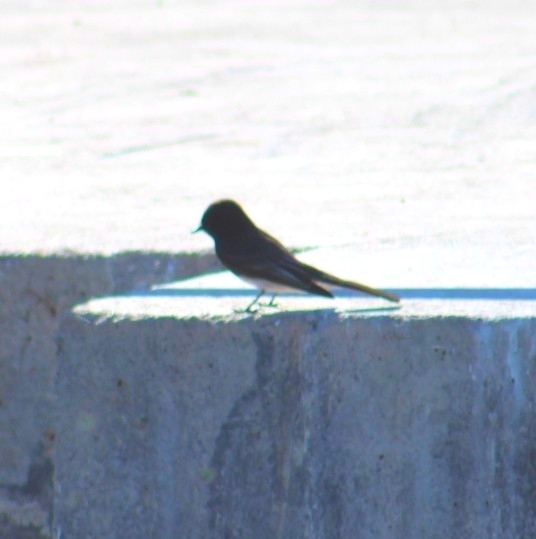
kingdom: Animalia
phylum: Chordata
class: Aves
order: Passeriformes
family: Tyrannidae
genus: Sayornis
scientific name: Sayornis nigricans
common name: Black phoebe
